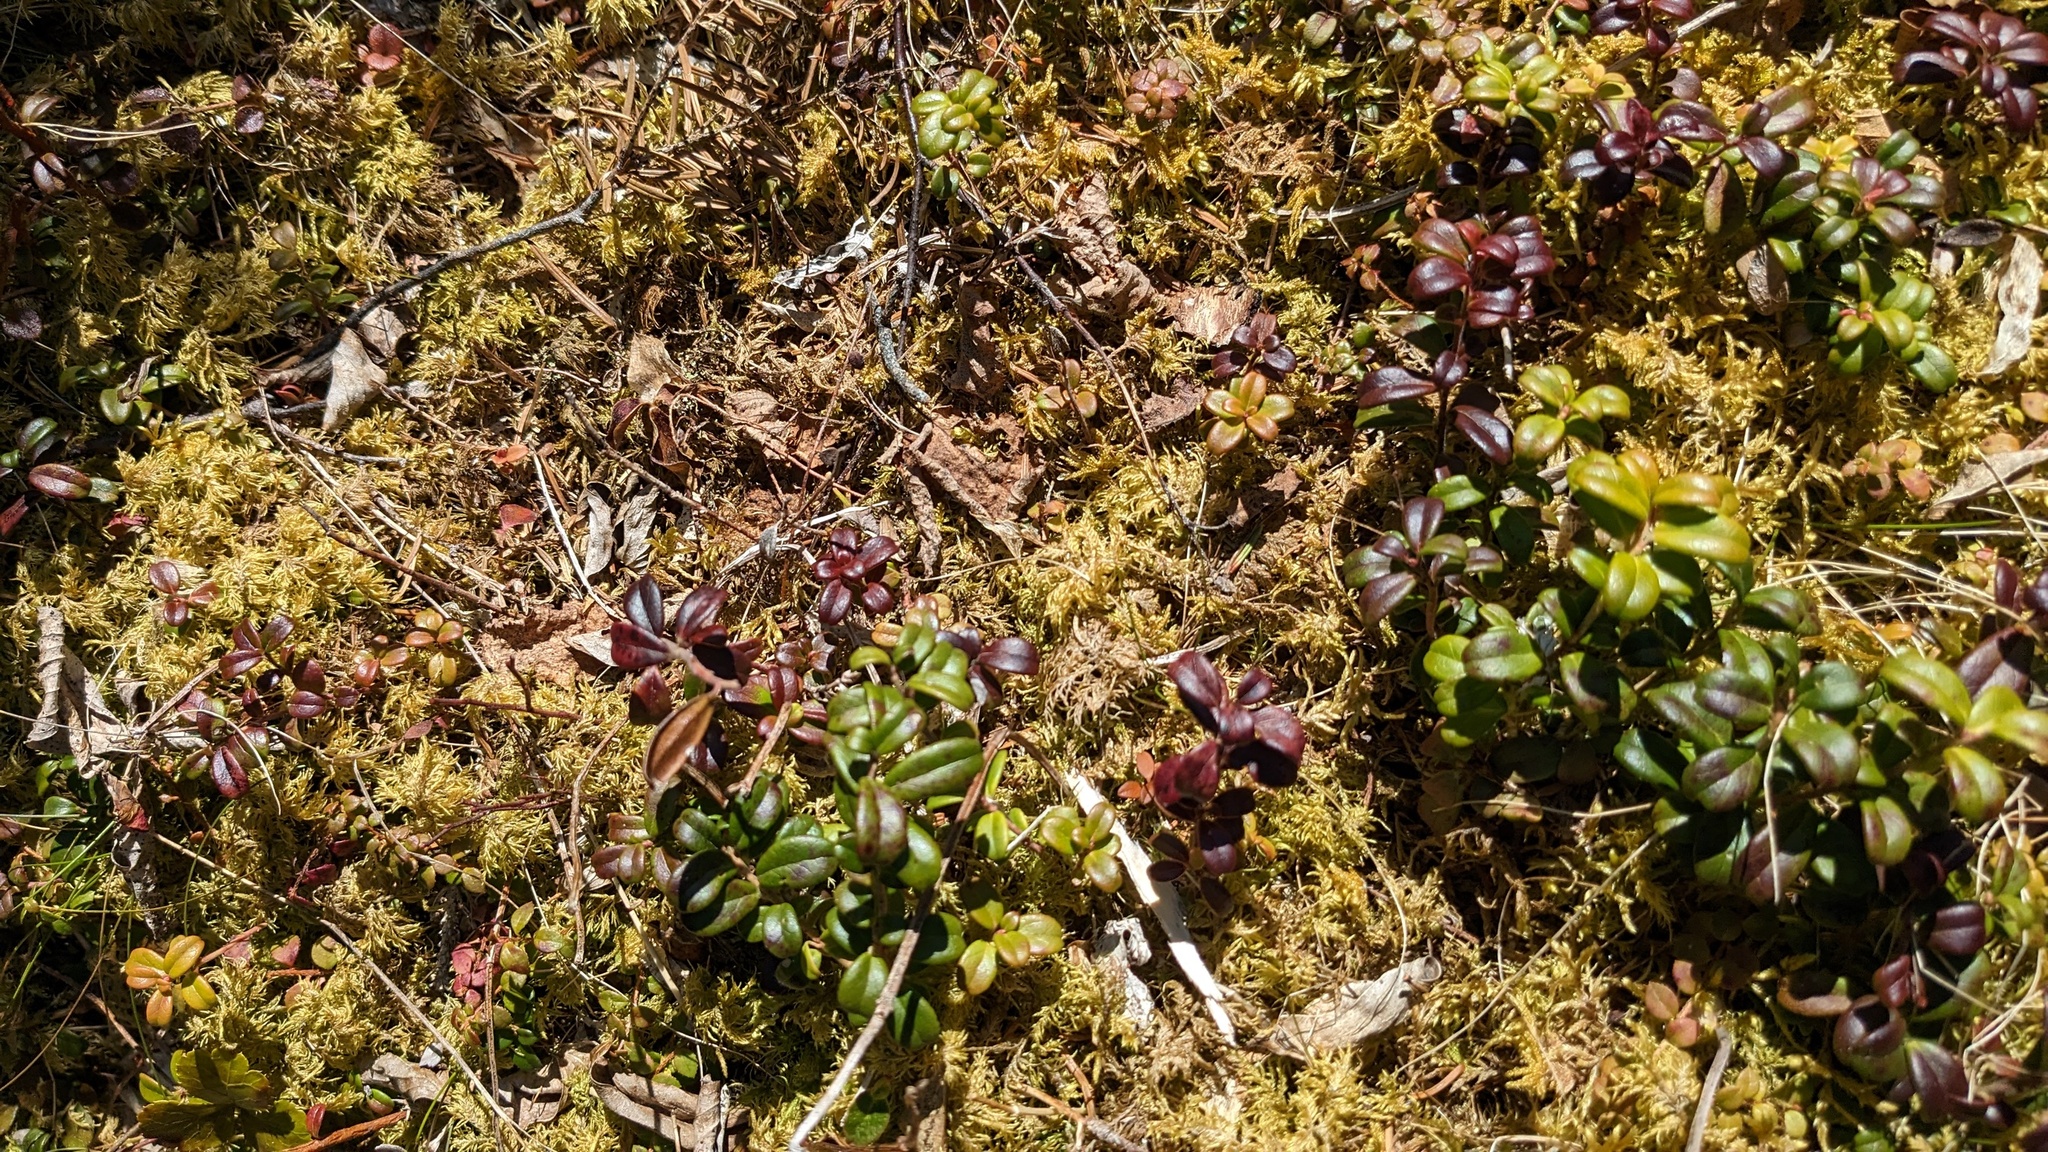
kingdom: Plantae
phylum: Tracheophyta
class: Magnoliopsida
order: Ericales
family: Ericaceae
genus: Vaccinium
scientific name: Vaccinium vitis-idaea
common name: Cowberry
